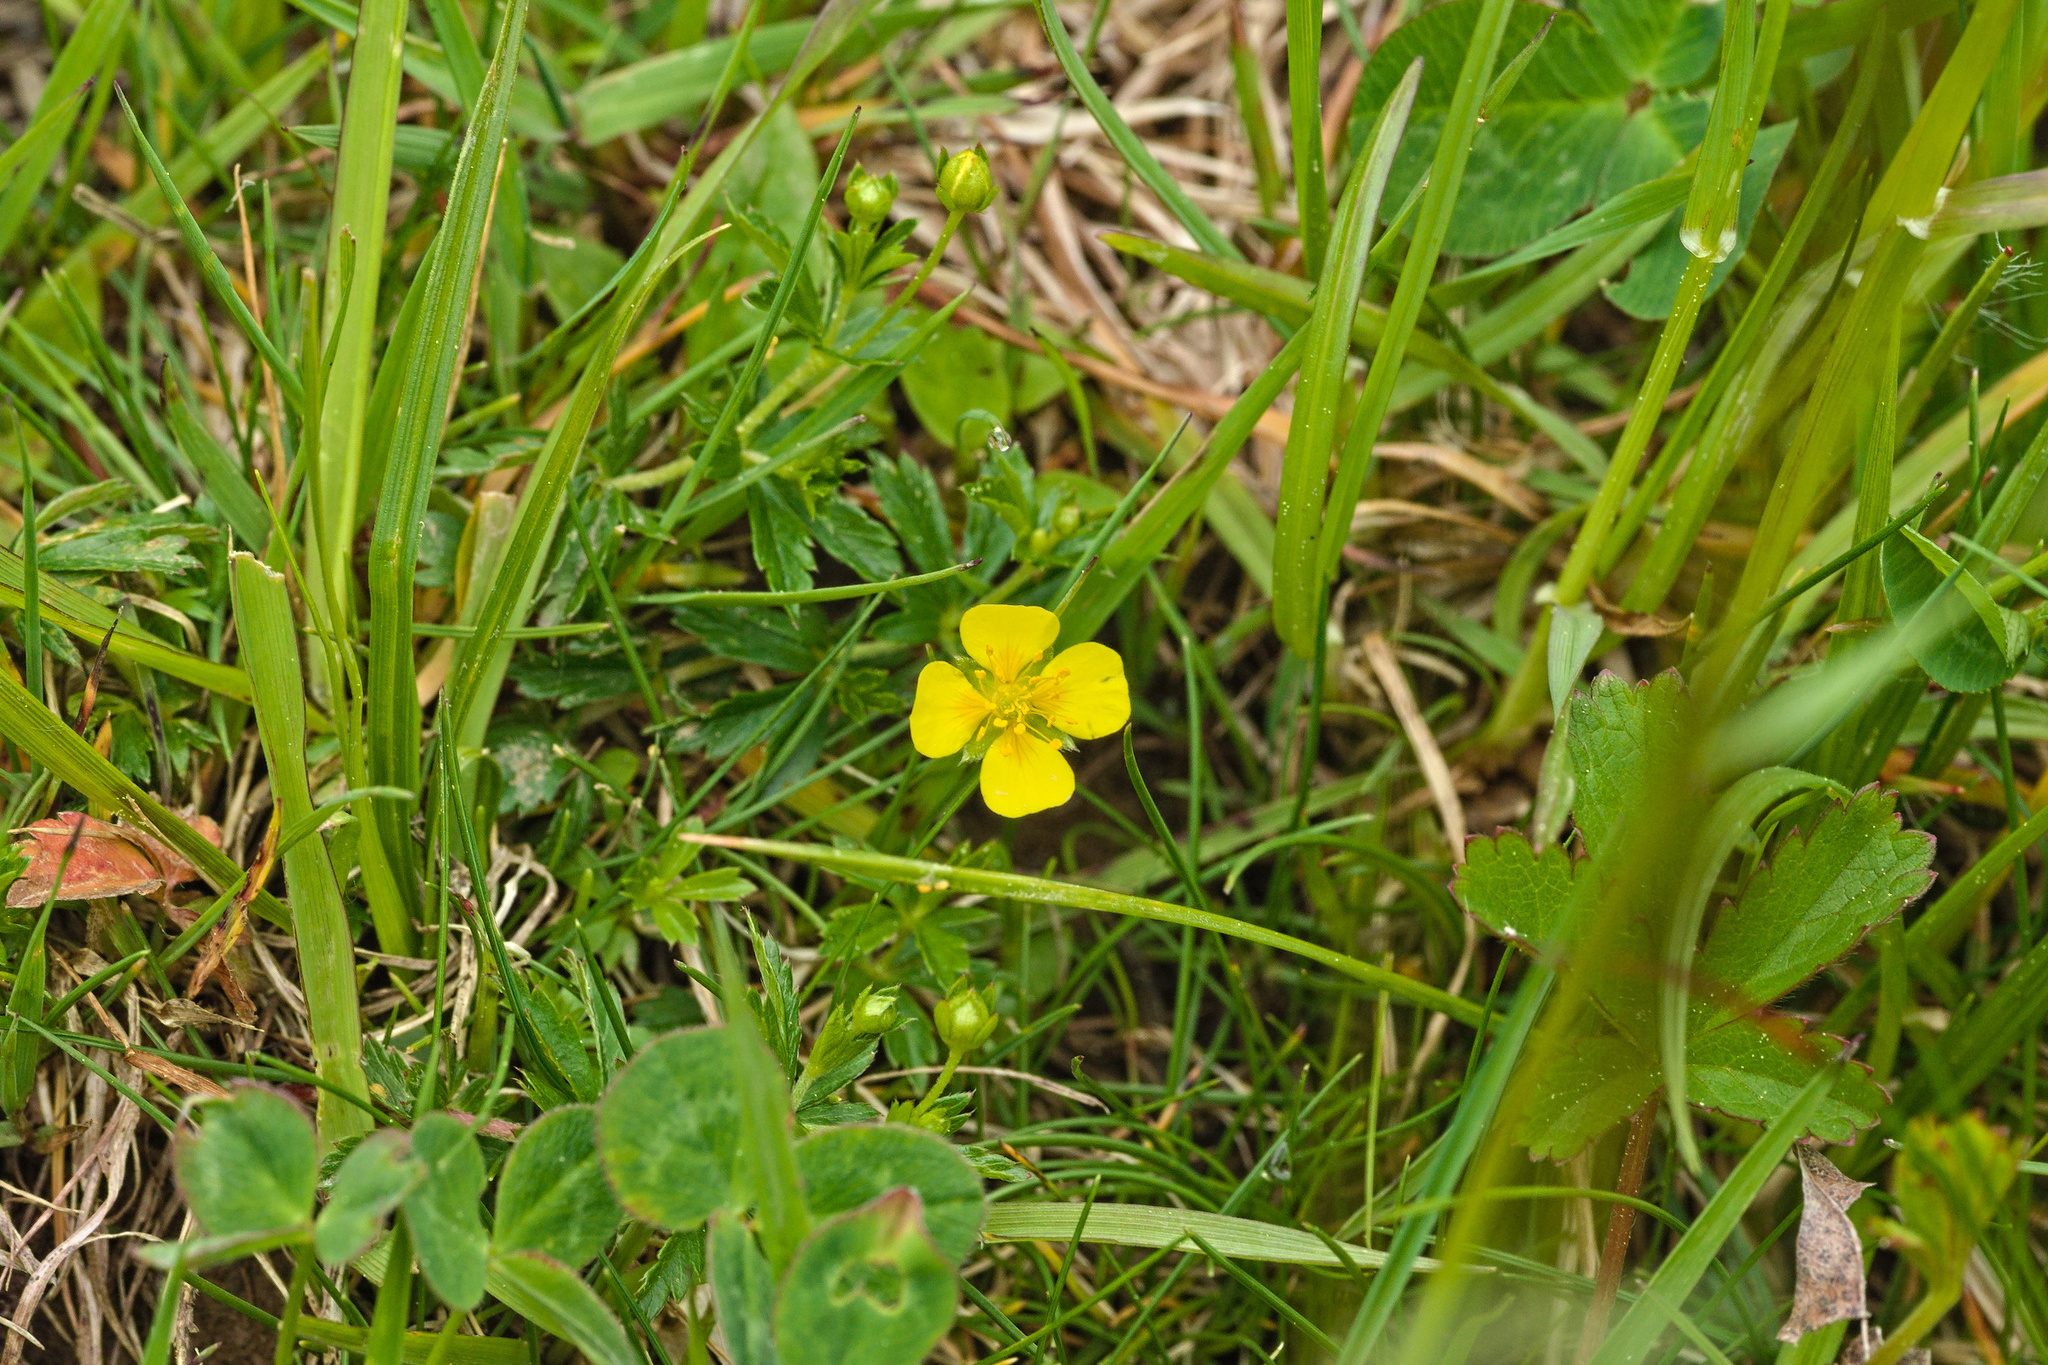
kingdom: Plantae
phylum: Tracheophyta
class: Magnoliopsida
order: Rosales
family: Rosaceae
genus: Potentilla
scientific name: Potentilla erecta
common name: Tormentil
